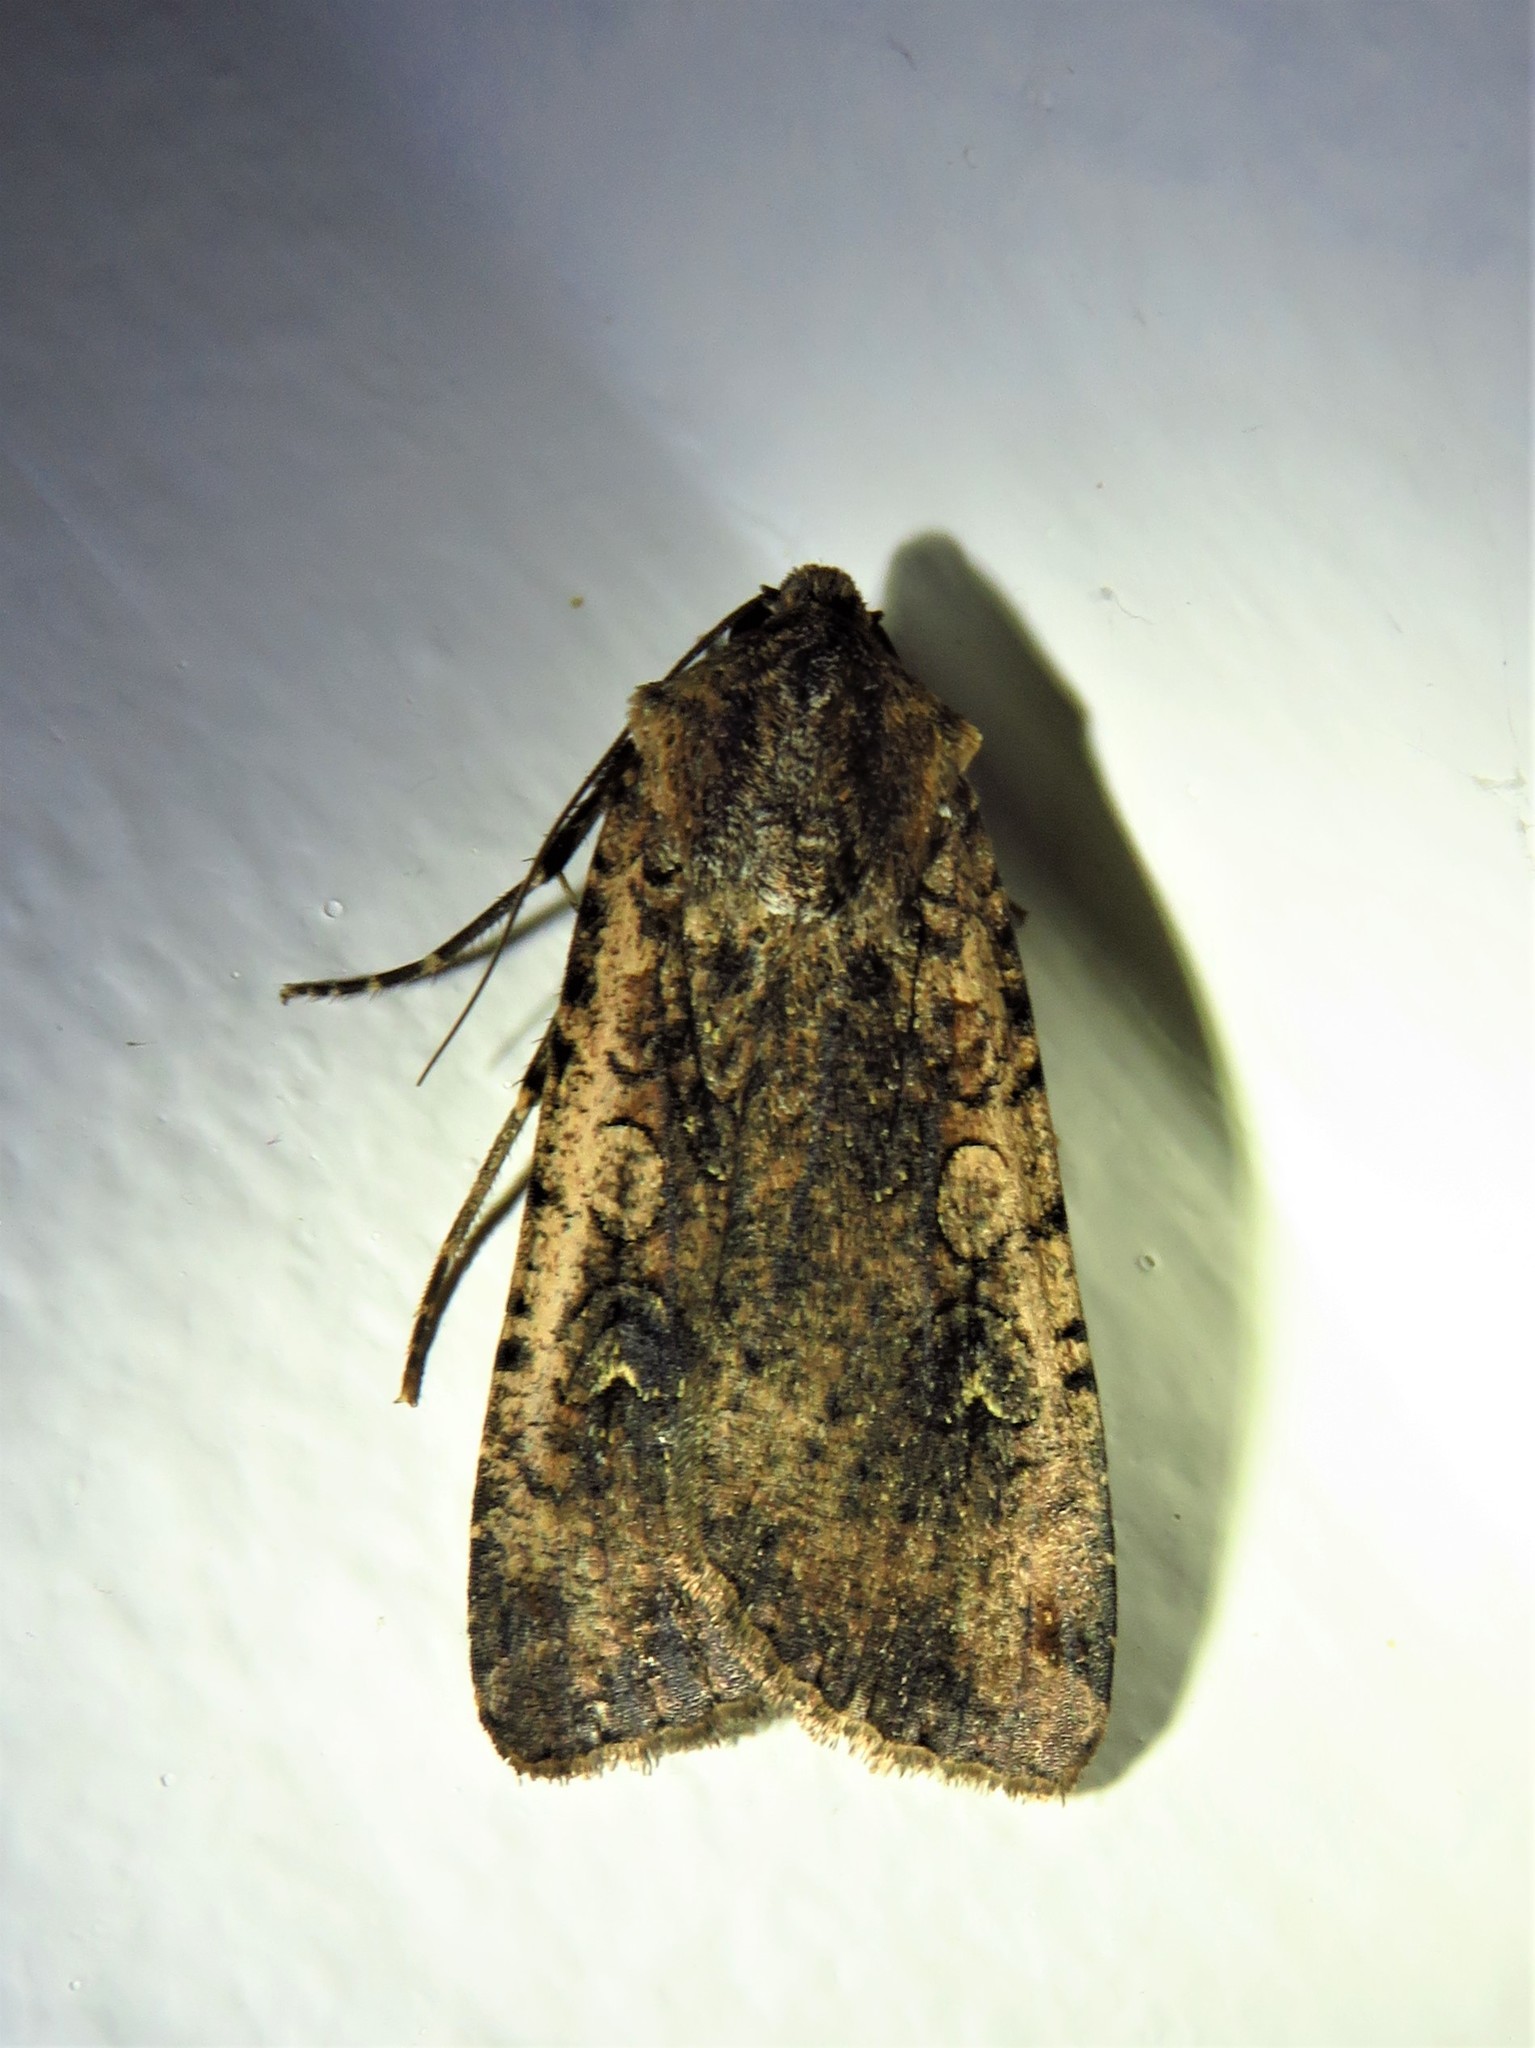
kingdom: Animalia
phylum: Arthropoda
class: Insecta
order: Lepidoptera
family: Noctuidae
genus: Peridroma
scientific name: Peridroma saucia
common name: Pearly underwing
